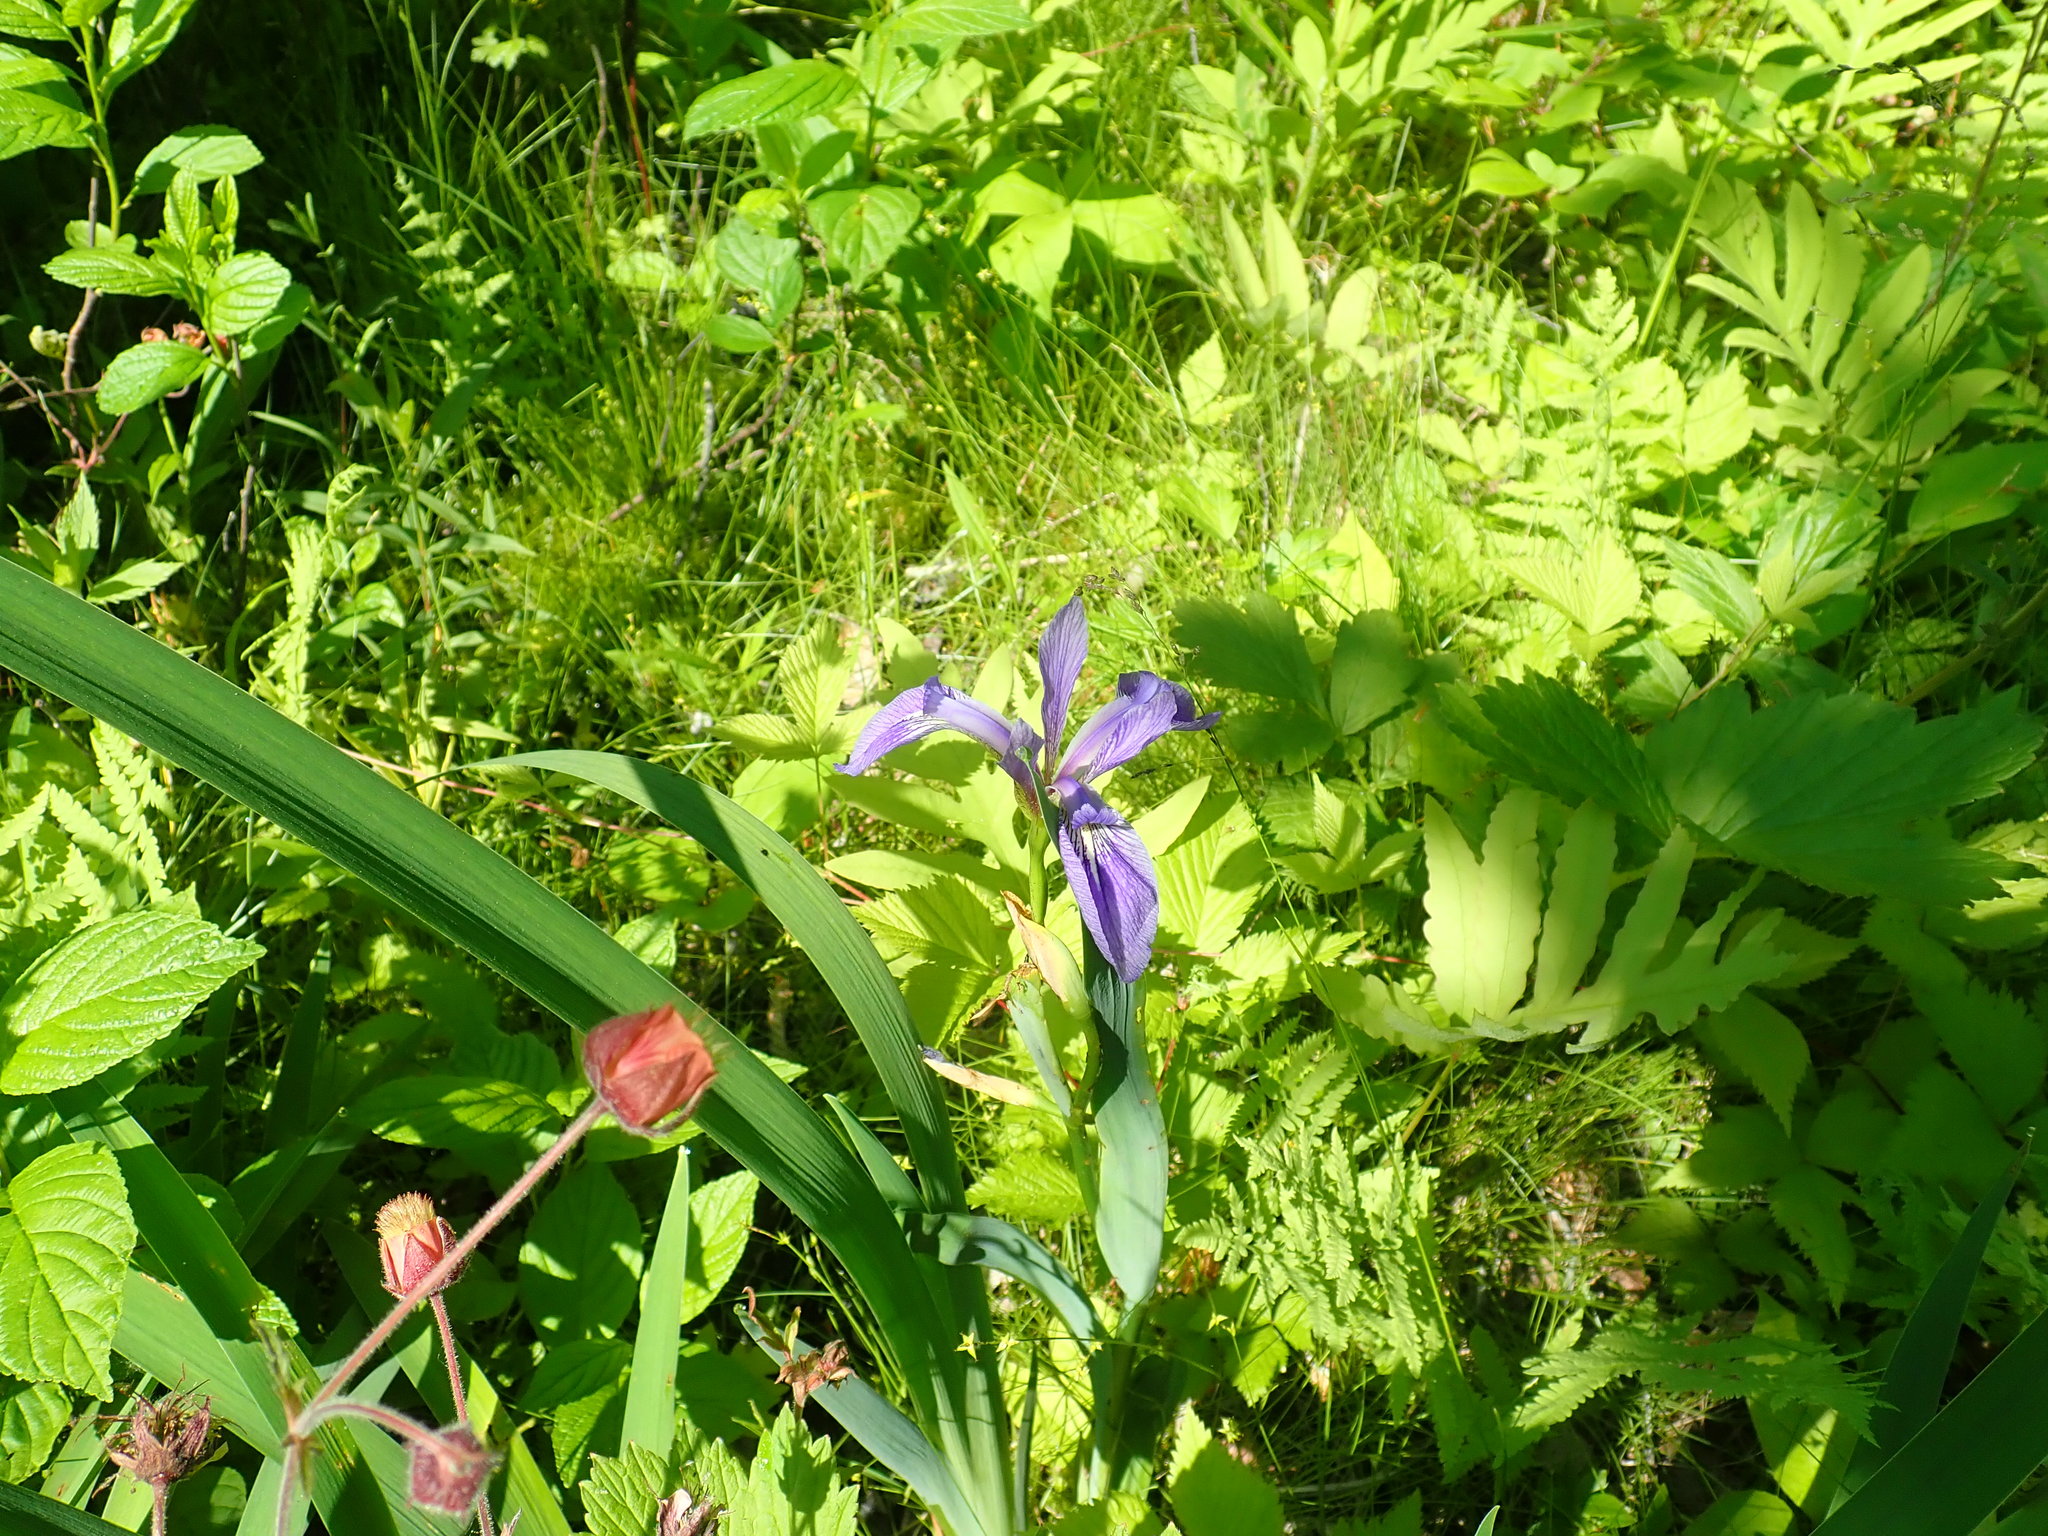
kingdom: Plantae
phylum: Tracheophyta
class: Liliopsida
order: Asparagales
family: Iridaceae
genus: Iris
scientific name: Iris versicolor
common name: Purple iris
